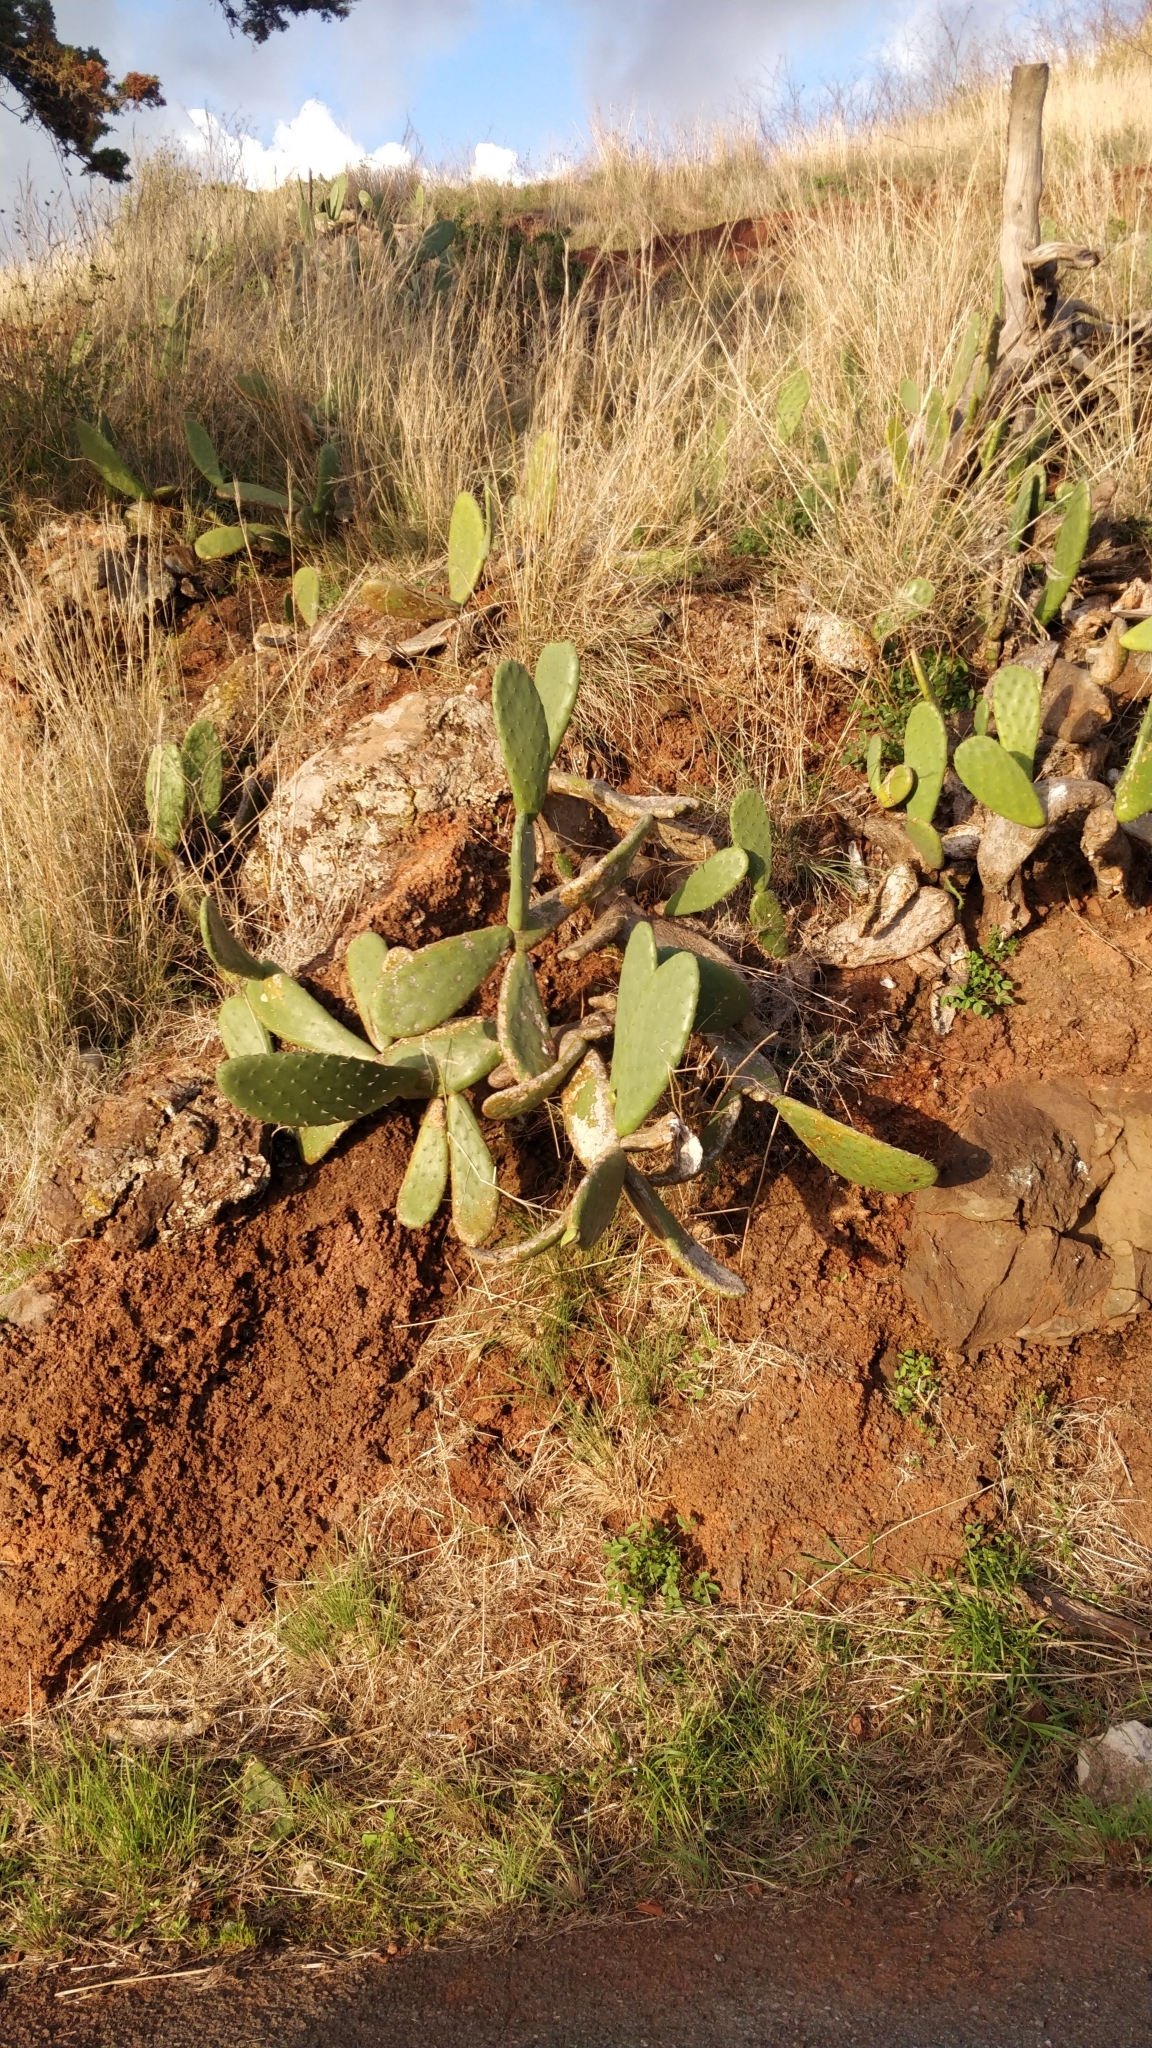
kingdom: Plantae
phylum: Tracheophyta
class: Magnoliopsida
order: Caryophyllales
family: Cactaceae
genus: Opuntia
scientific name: Opuntia ficus-indica
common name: Barbary fig
